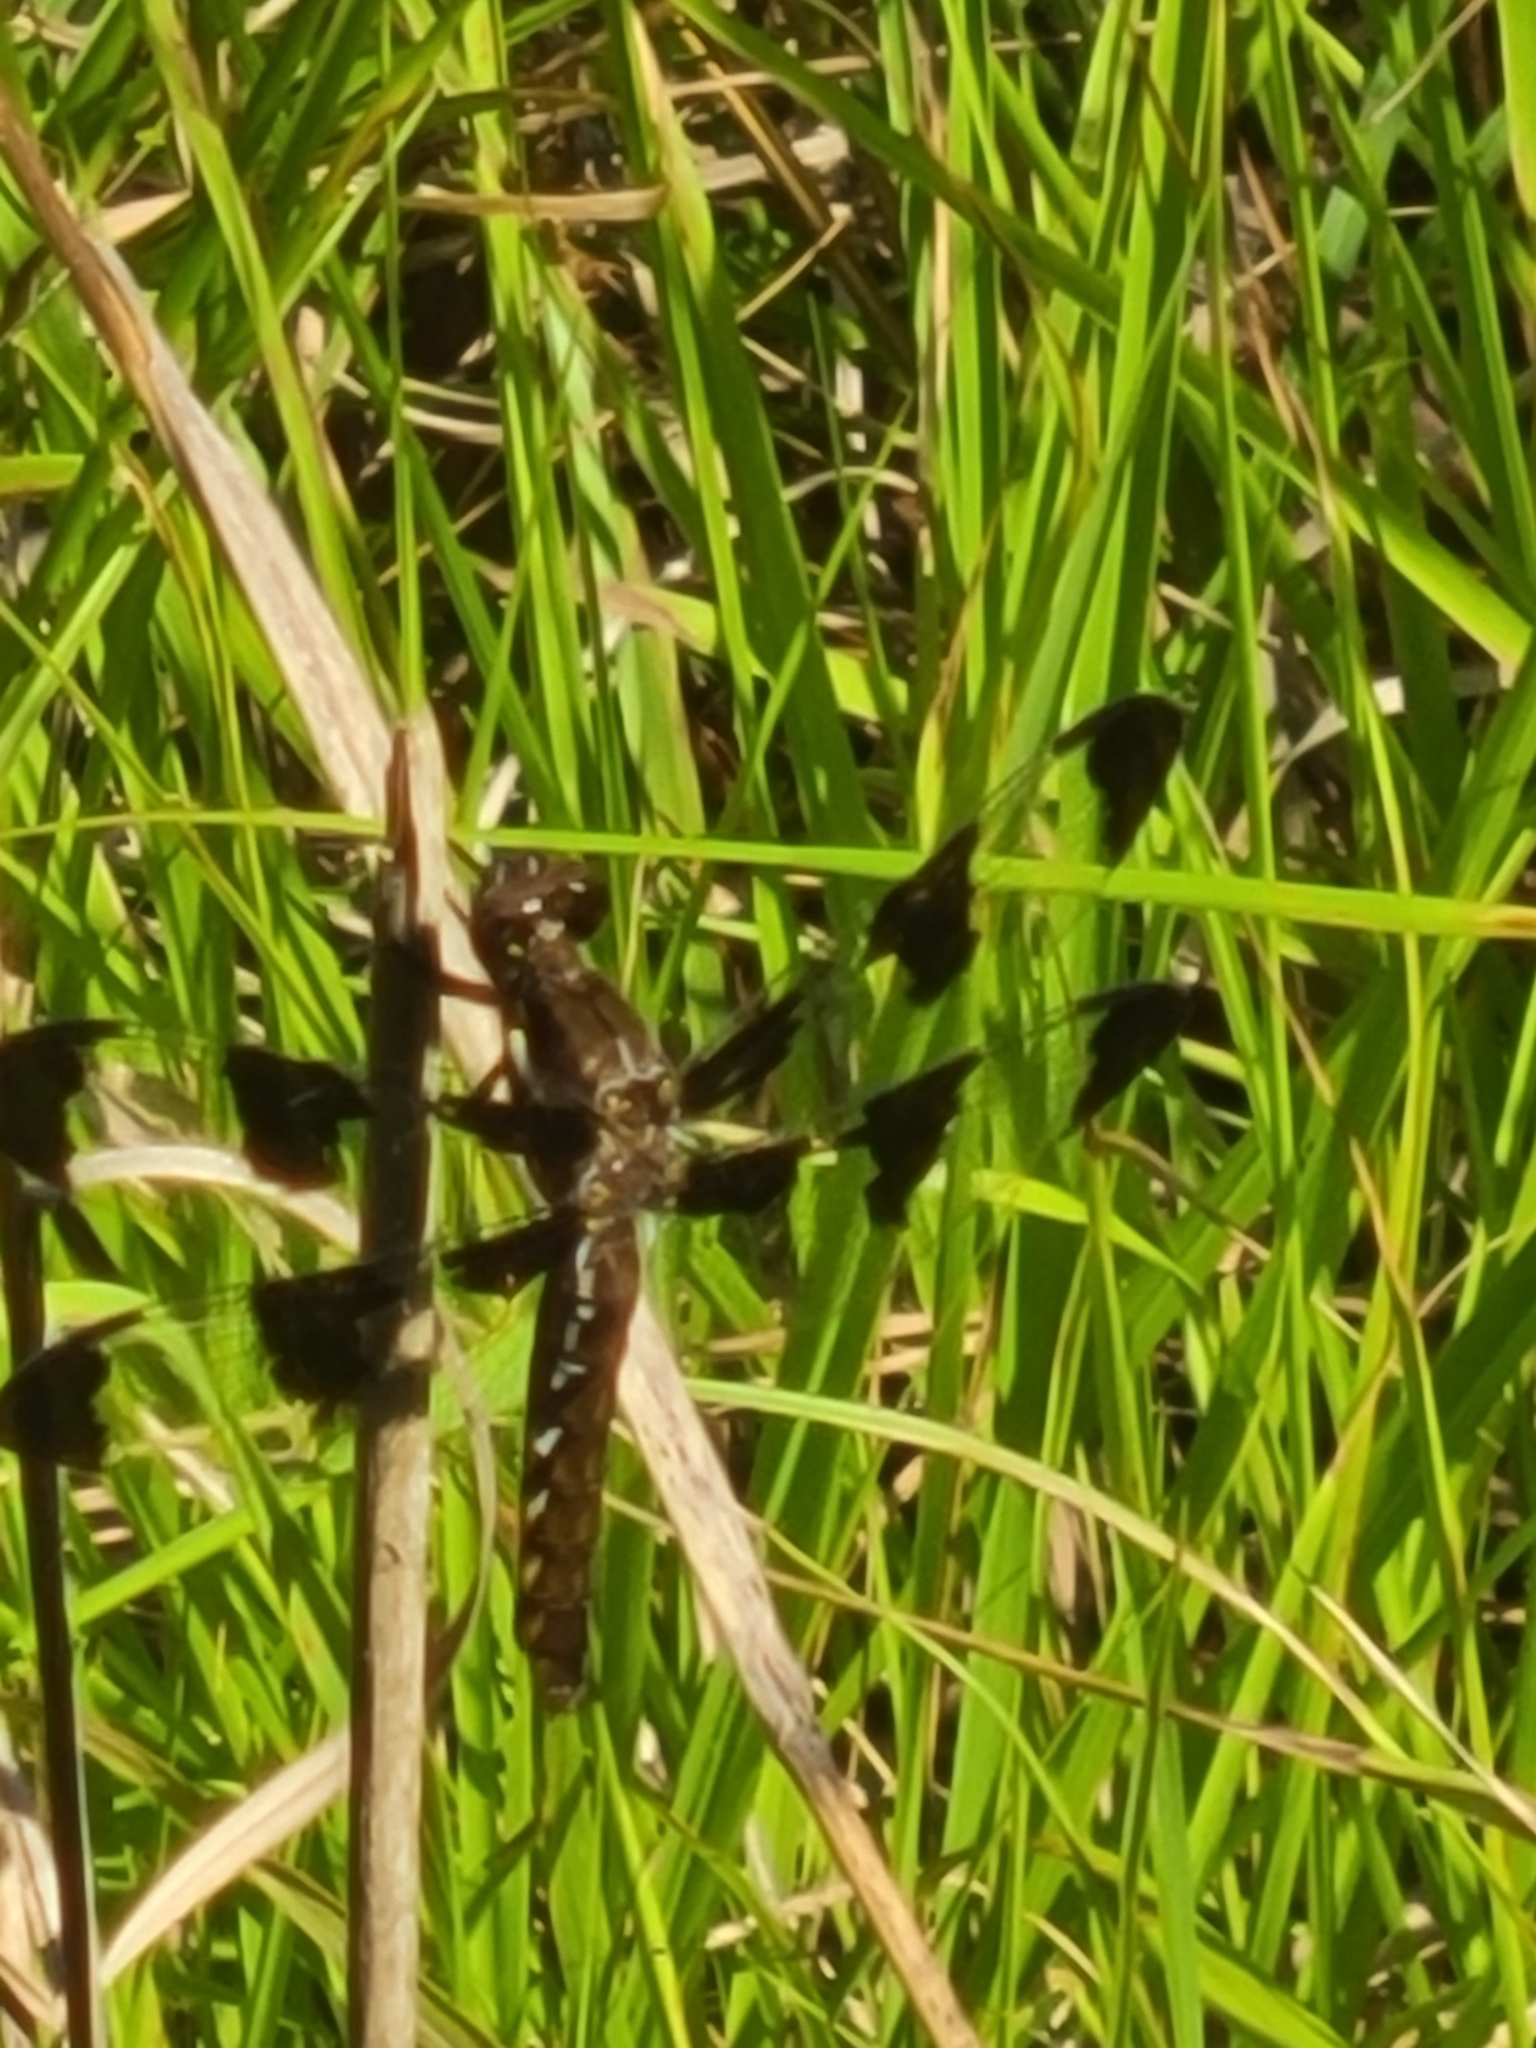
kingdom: Animalia
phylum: Arthropoda
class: Insecta
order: Odonata
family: Libellulidae
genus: Plathemis
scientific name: Plathemis lydia
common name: Common whitetail
